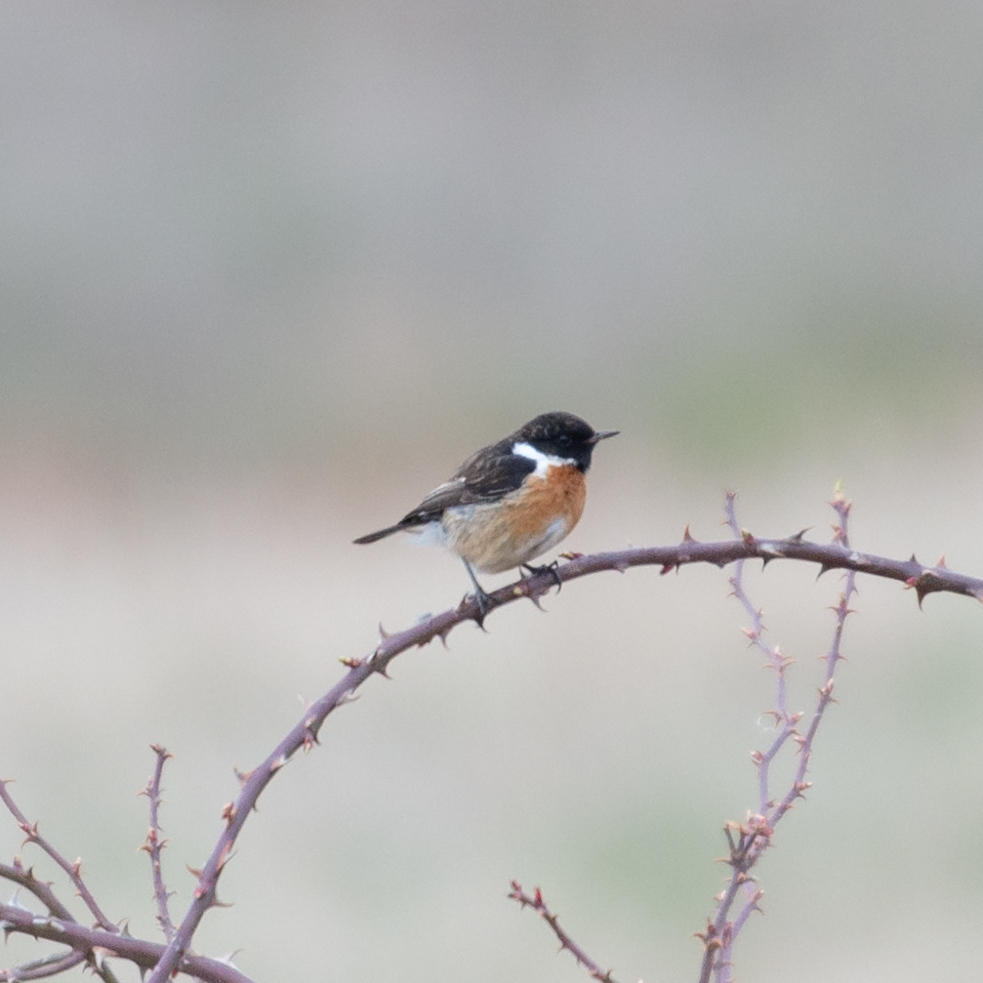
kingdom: Animalia
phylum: Chordata
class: Aves
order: Passeriformes
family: Muscicapidae
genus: Saxicola
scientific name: Saxicola rubicola
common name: European stonechat
